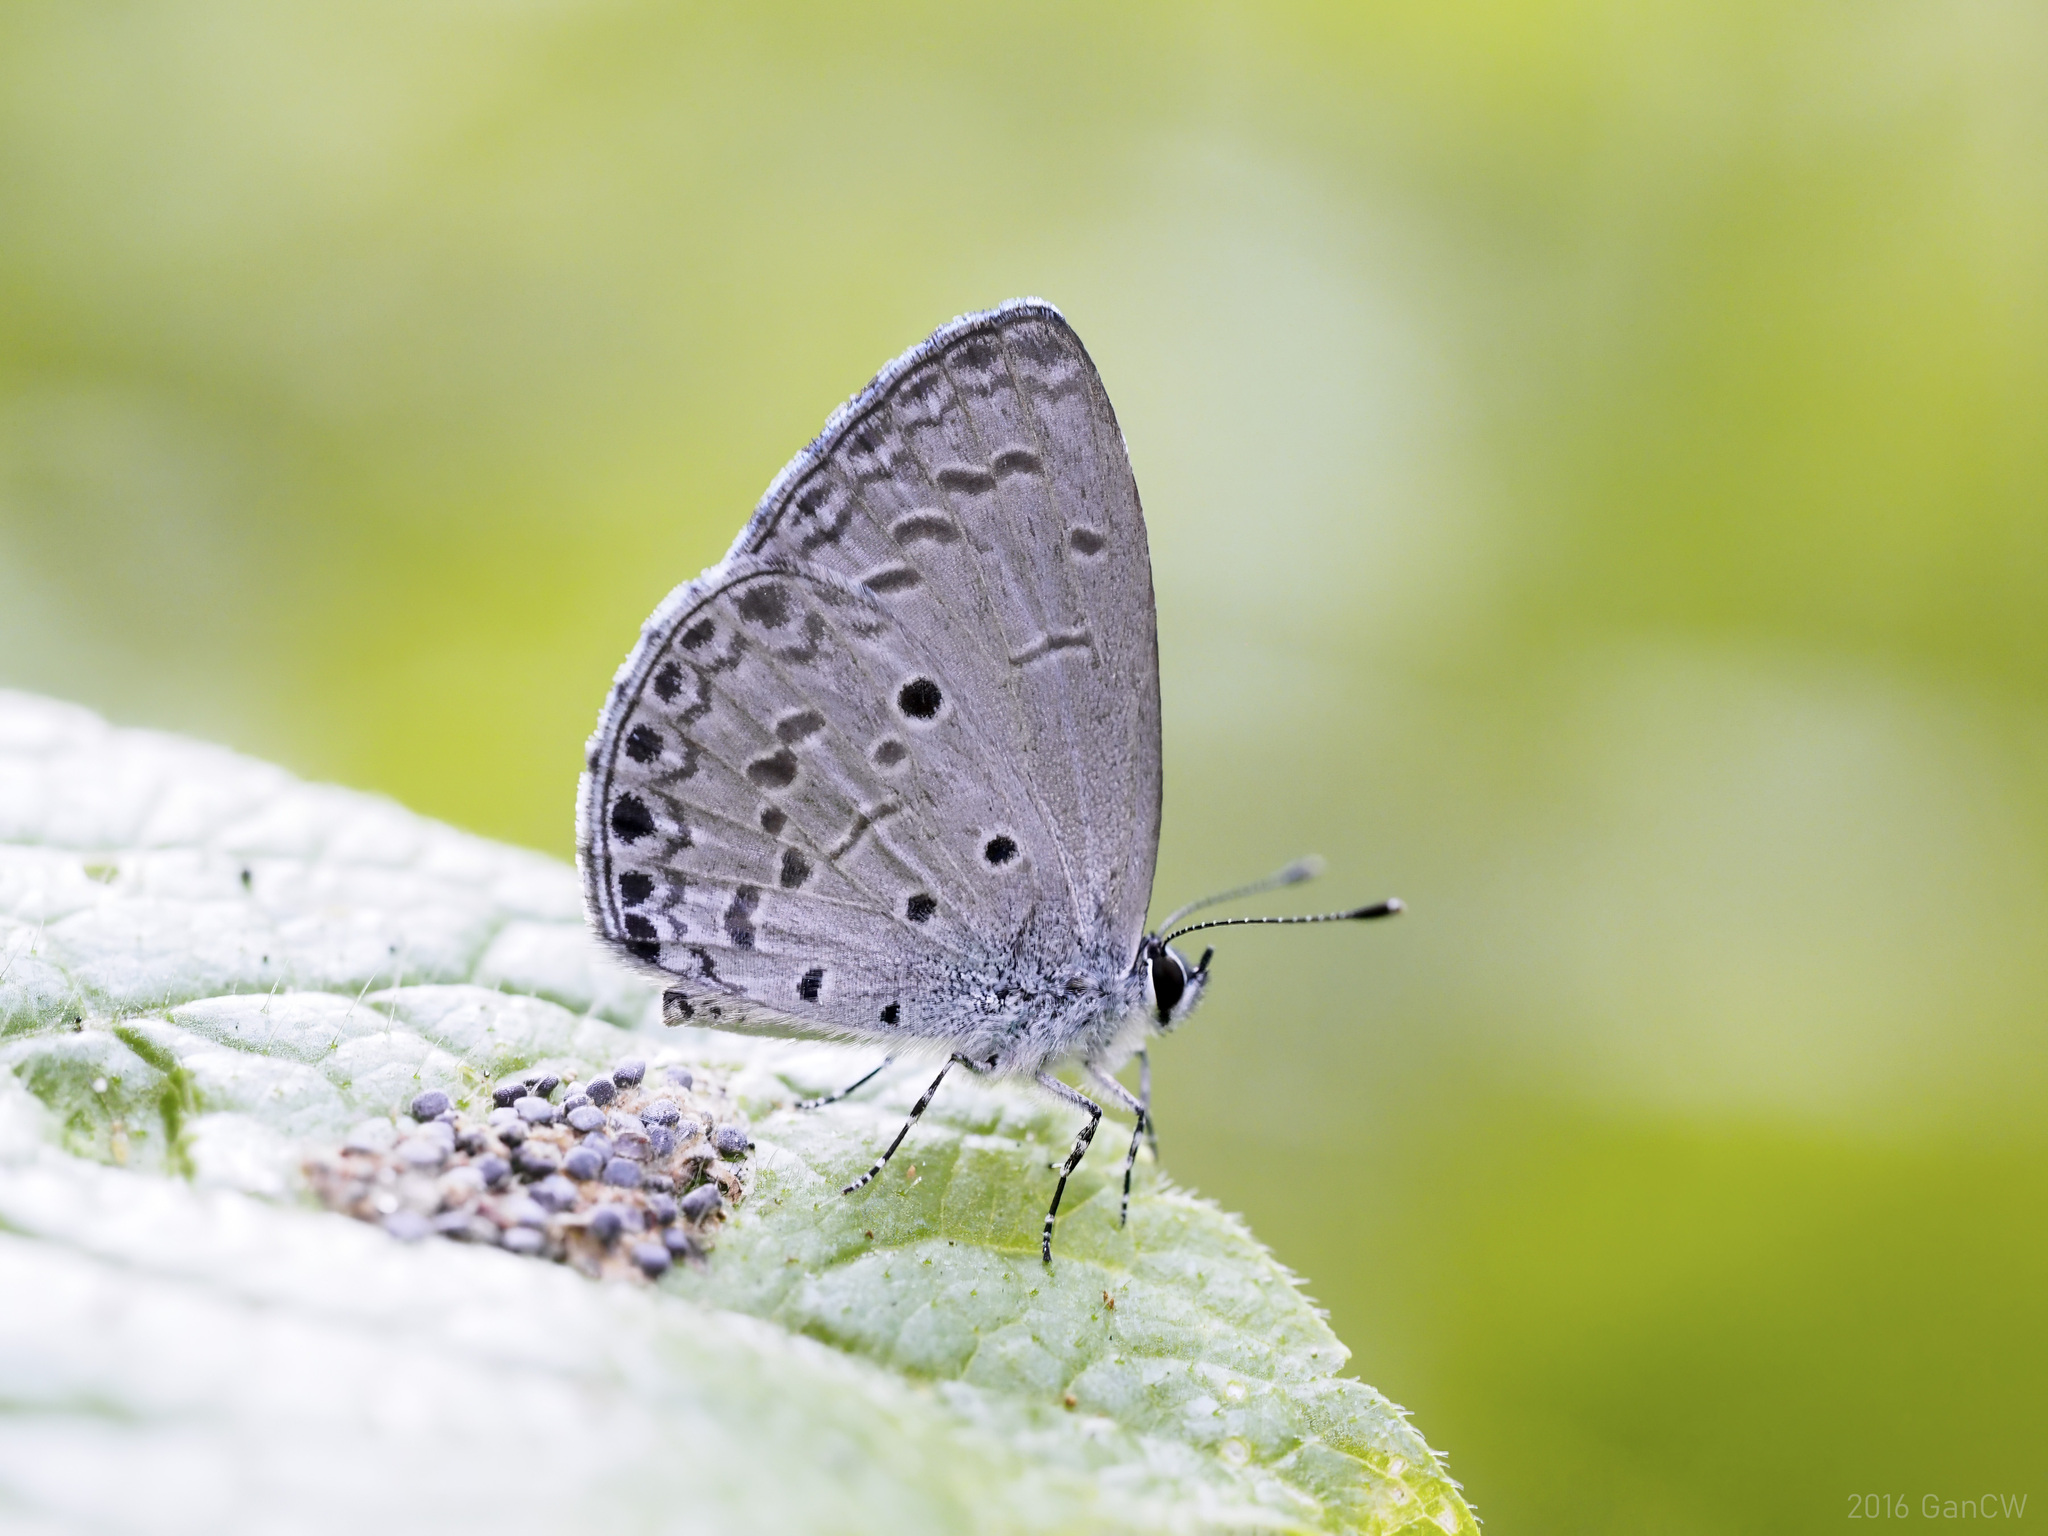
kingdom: Animalia
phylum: Arthropoda
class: Insecta
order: Lepidoptera
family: Lycaenidae
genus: Celastrina
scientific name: Celastrina lavendularis
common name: Plain hedge blue
